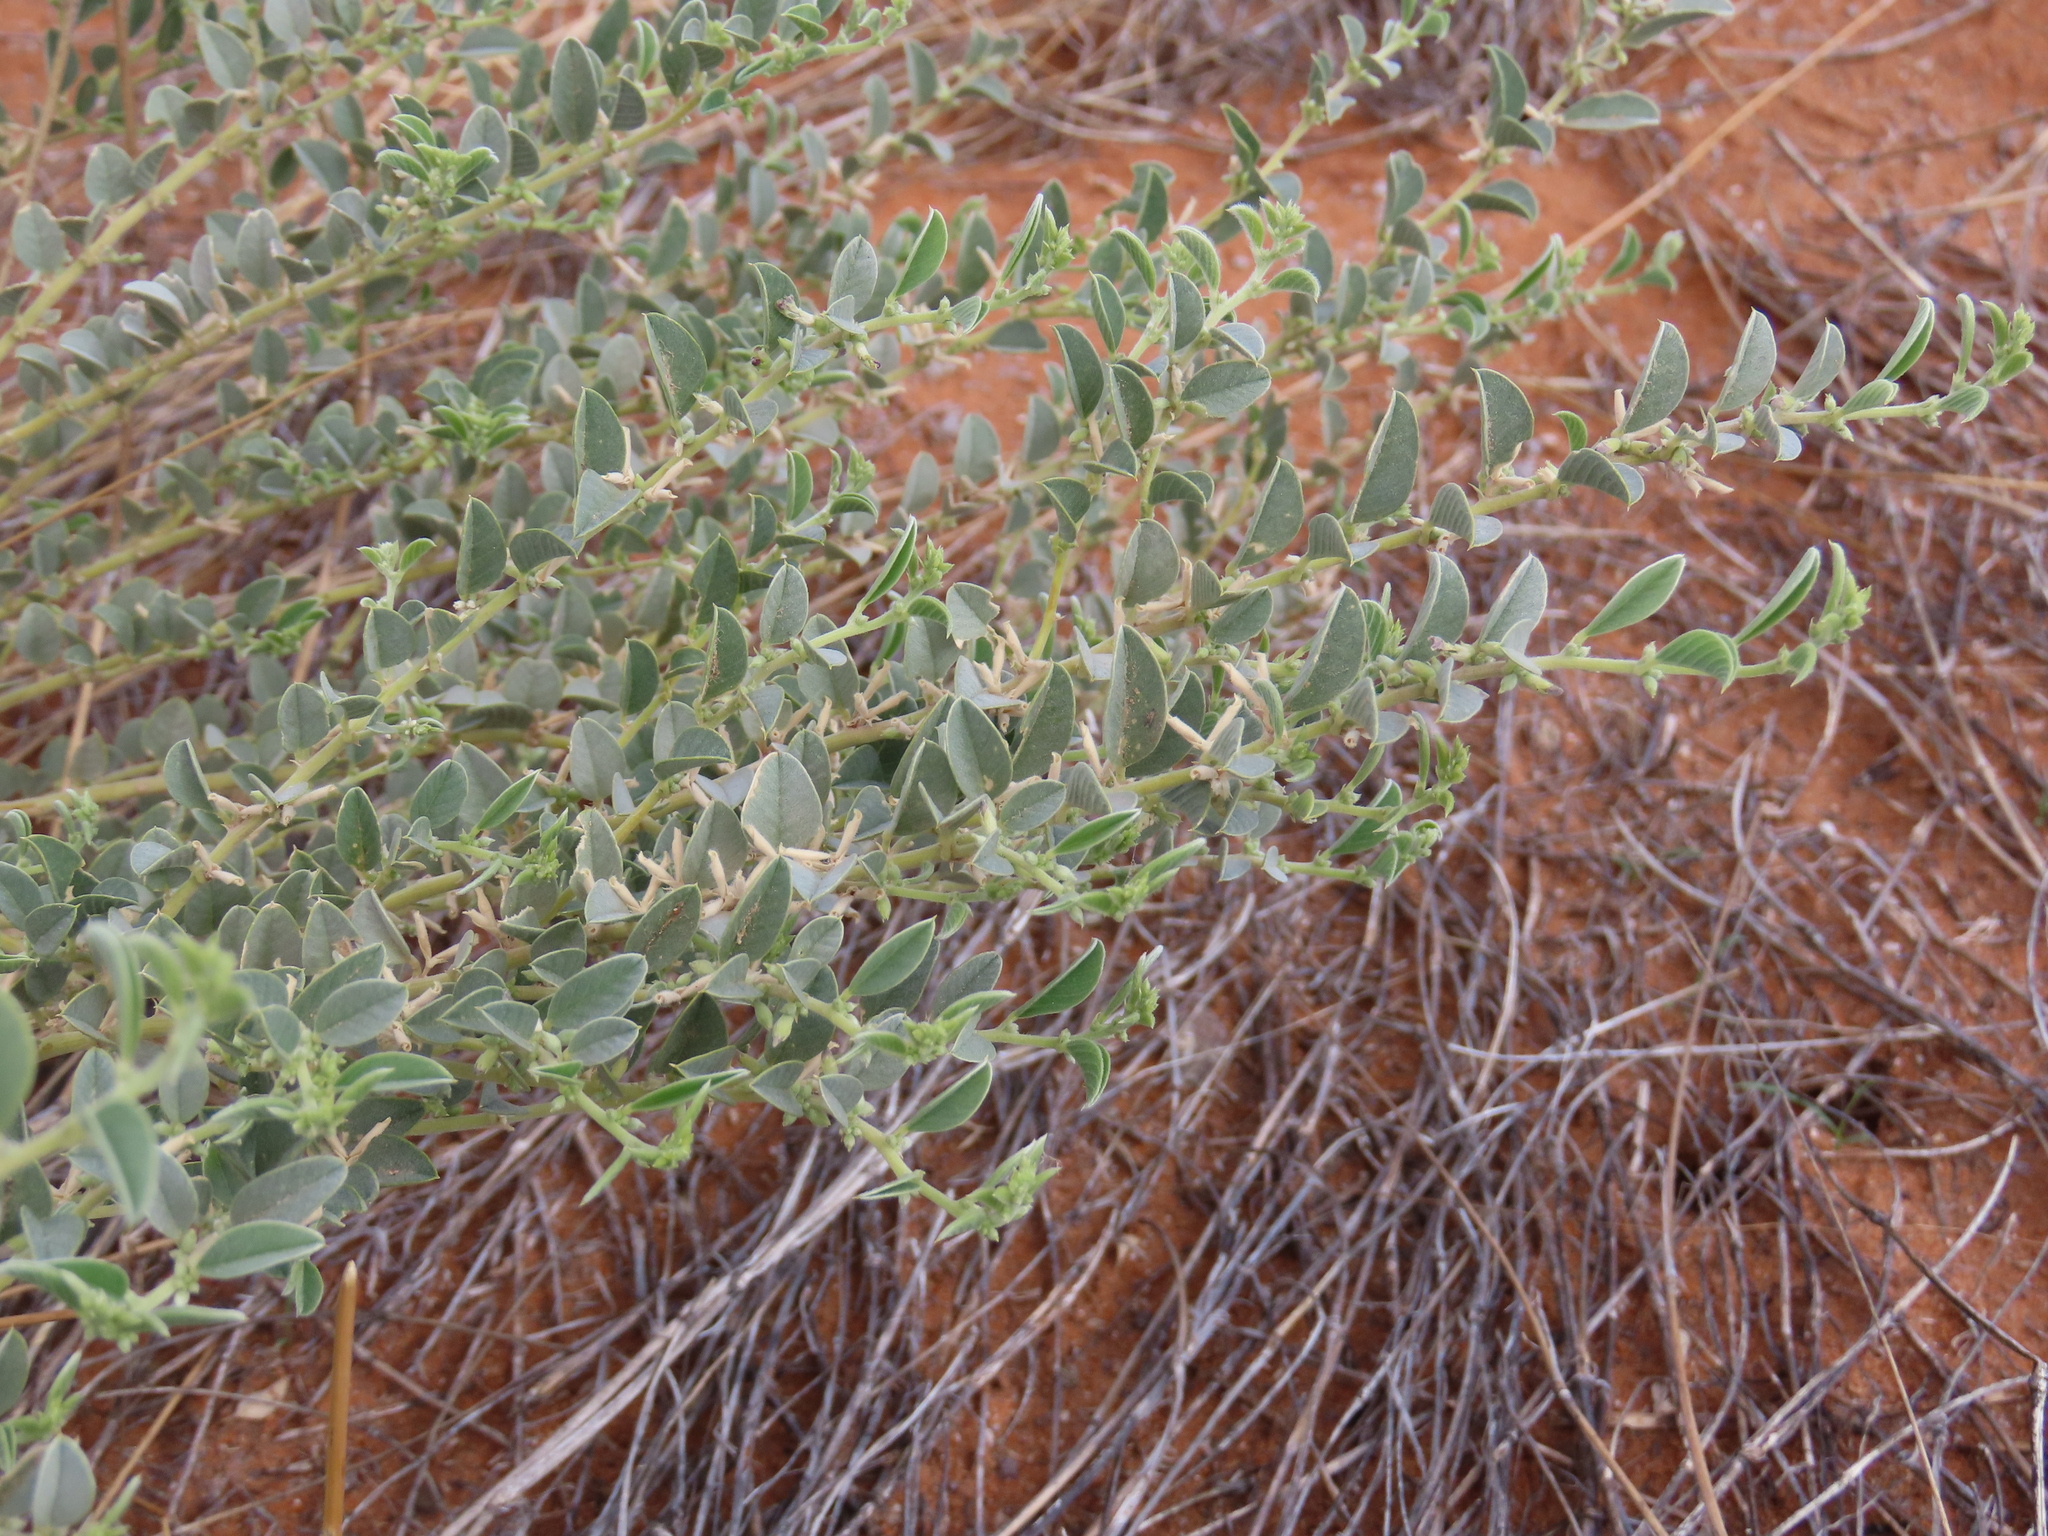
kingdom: Plantae
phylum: Tracheophyta
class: Magnoliopsida
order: Fabales
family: Fabaceae
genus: Requienia
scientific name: Requienia sphaerosperma
